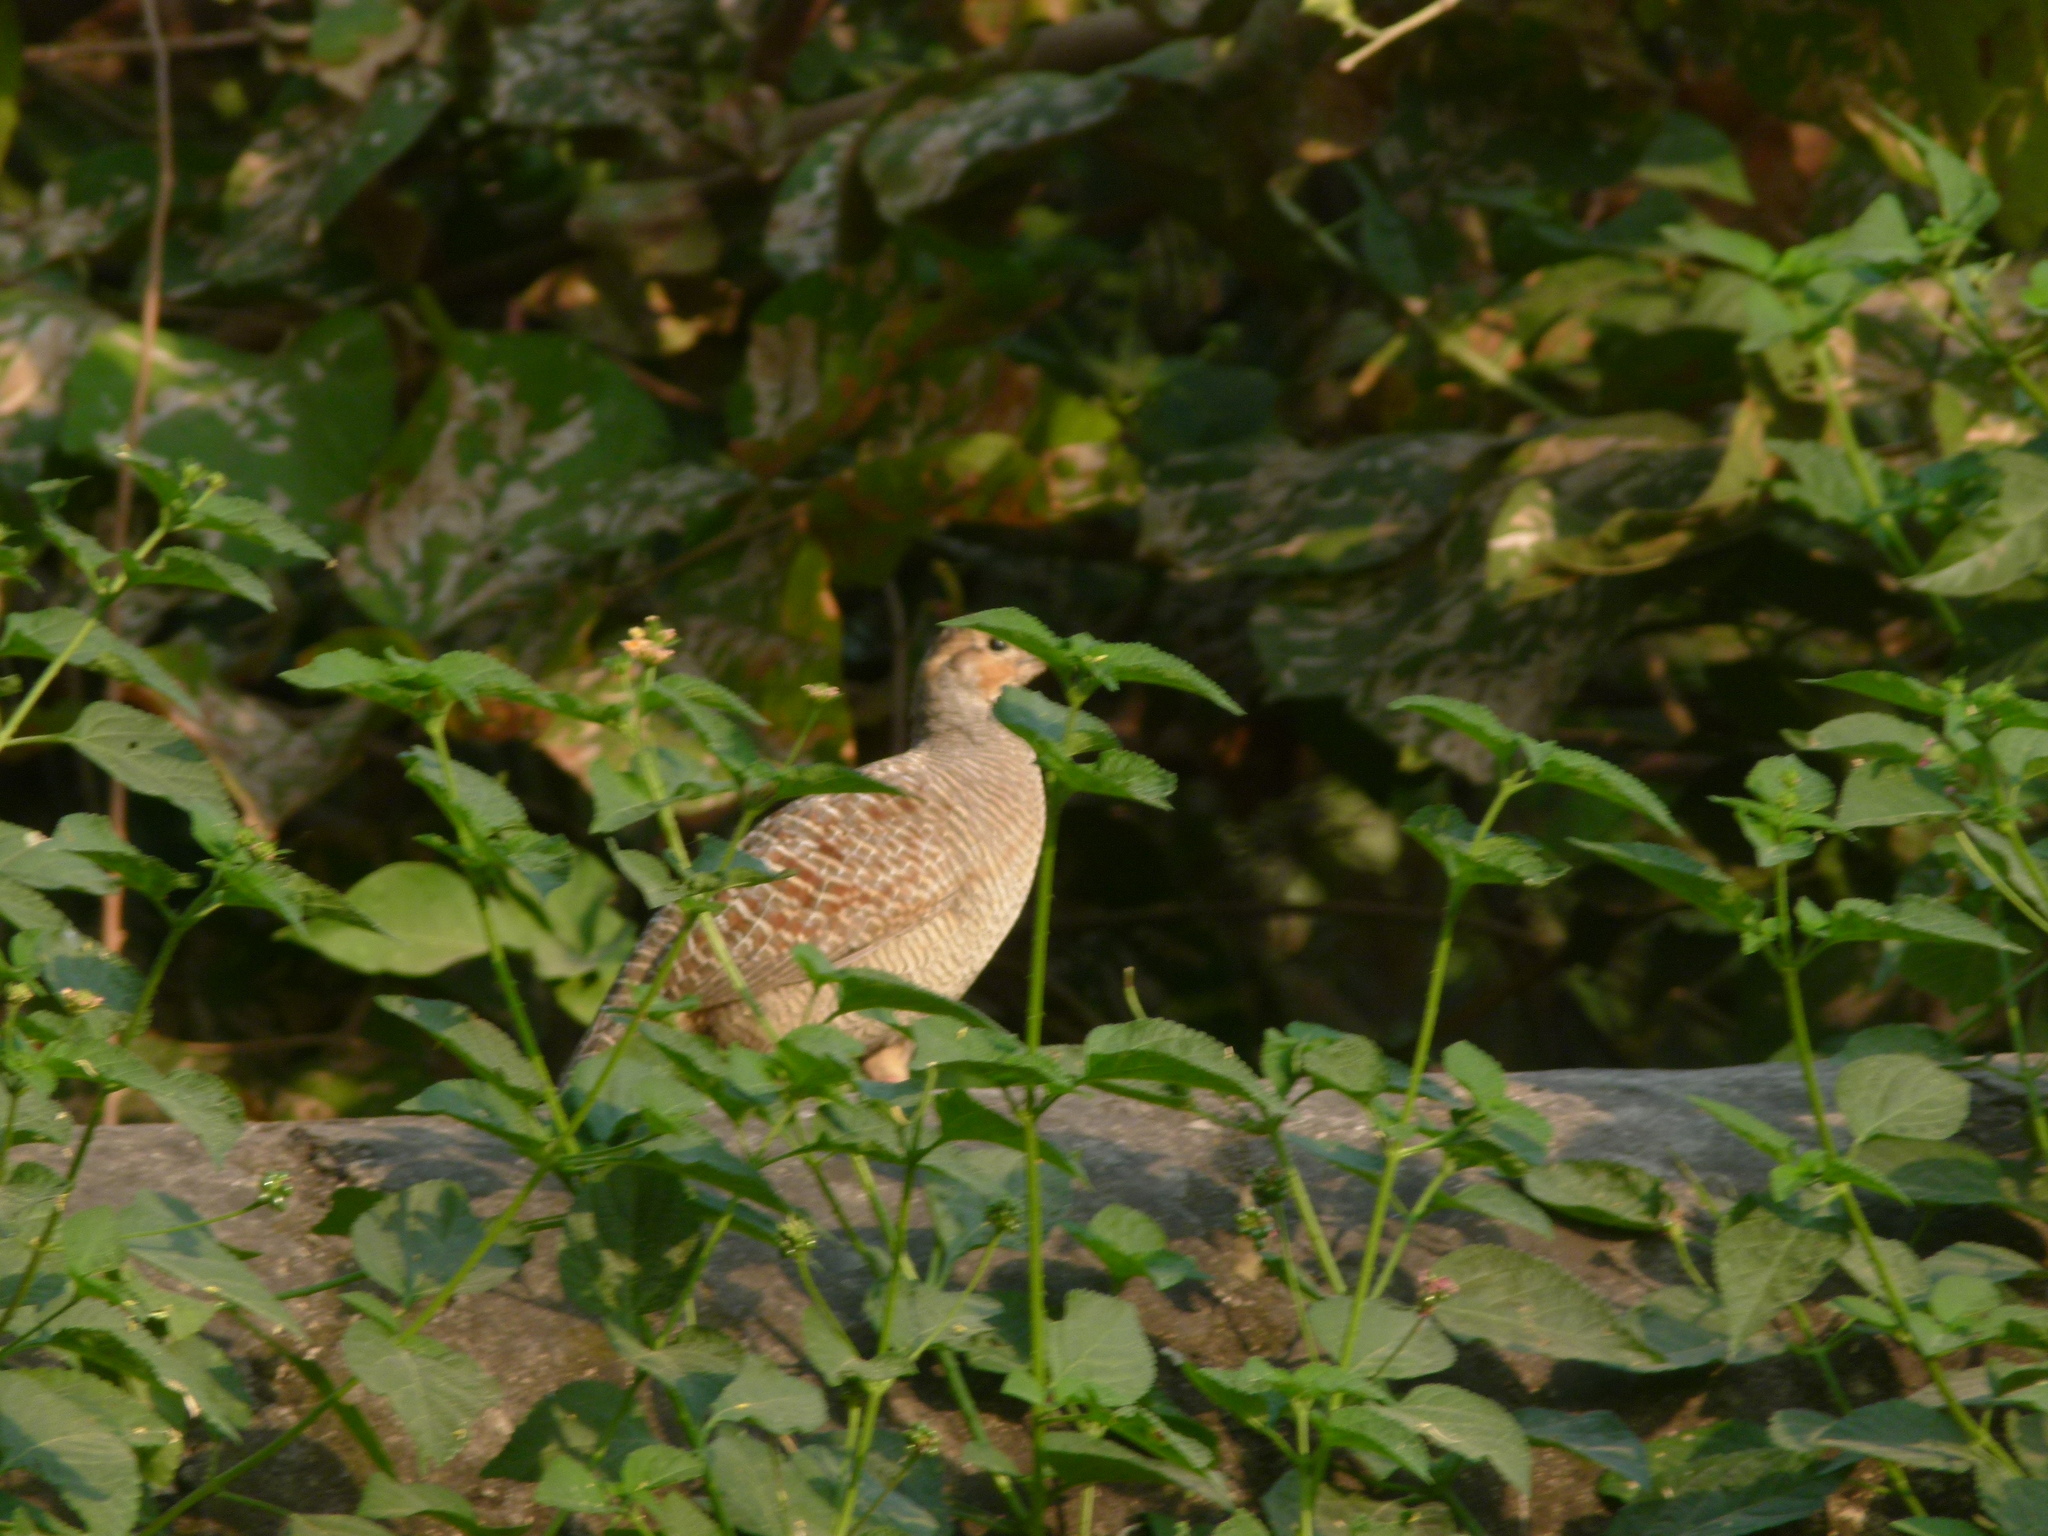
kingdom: Animalia
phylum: Chordata
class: Aves
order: Galliformes
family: Phasianidae
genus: Ortygornis
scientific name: Ortygornis pondicerianus
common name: Grey francolin
